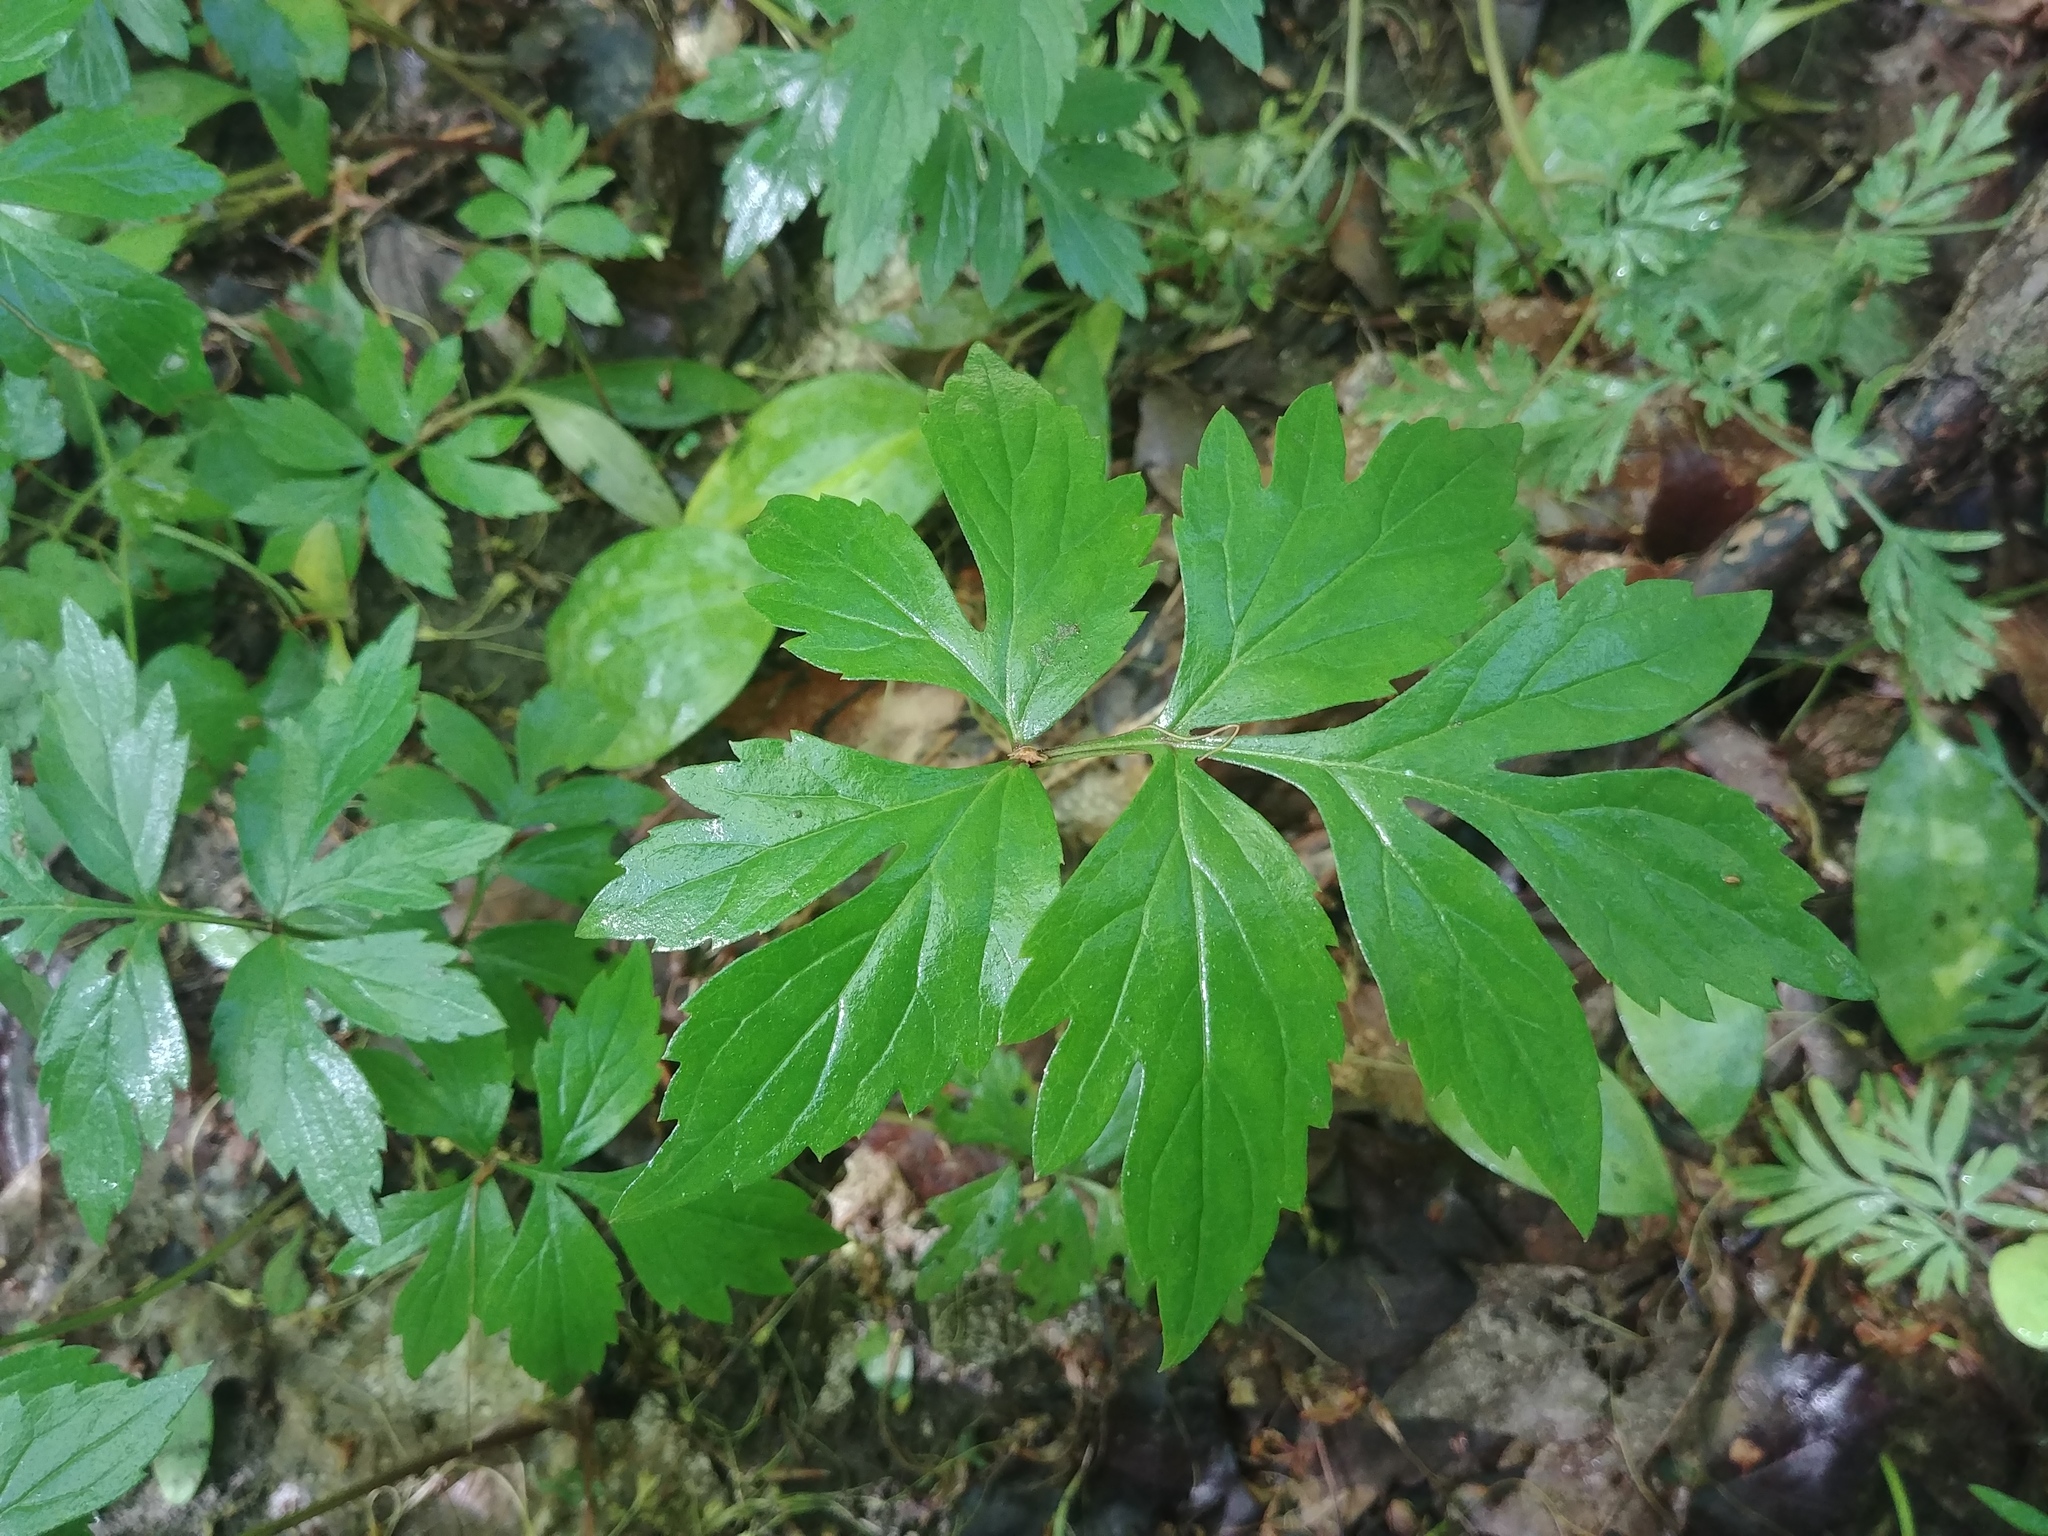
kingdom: Plantae
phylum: Tracheophyta
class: Magnoliopsida
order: Boraginales
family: Hydrophyllaceae
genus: Hydrophyllum
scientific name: Hydrophyllum virginianum
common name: Virginia waterleaf
